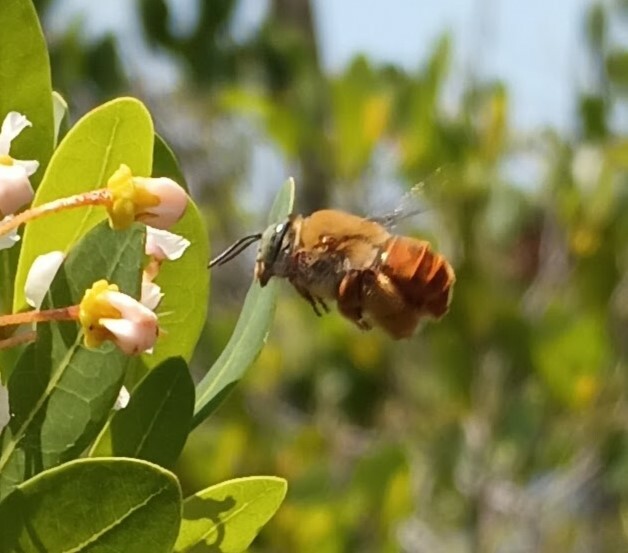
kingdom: Animalia
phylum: Arthropoda
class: Insecta
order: Hymenoptera
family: Apidae
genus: Centris
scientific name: Centris errans
